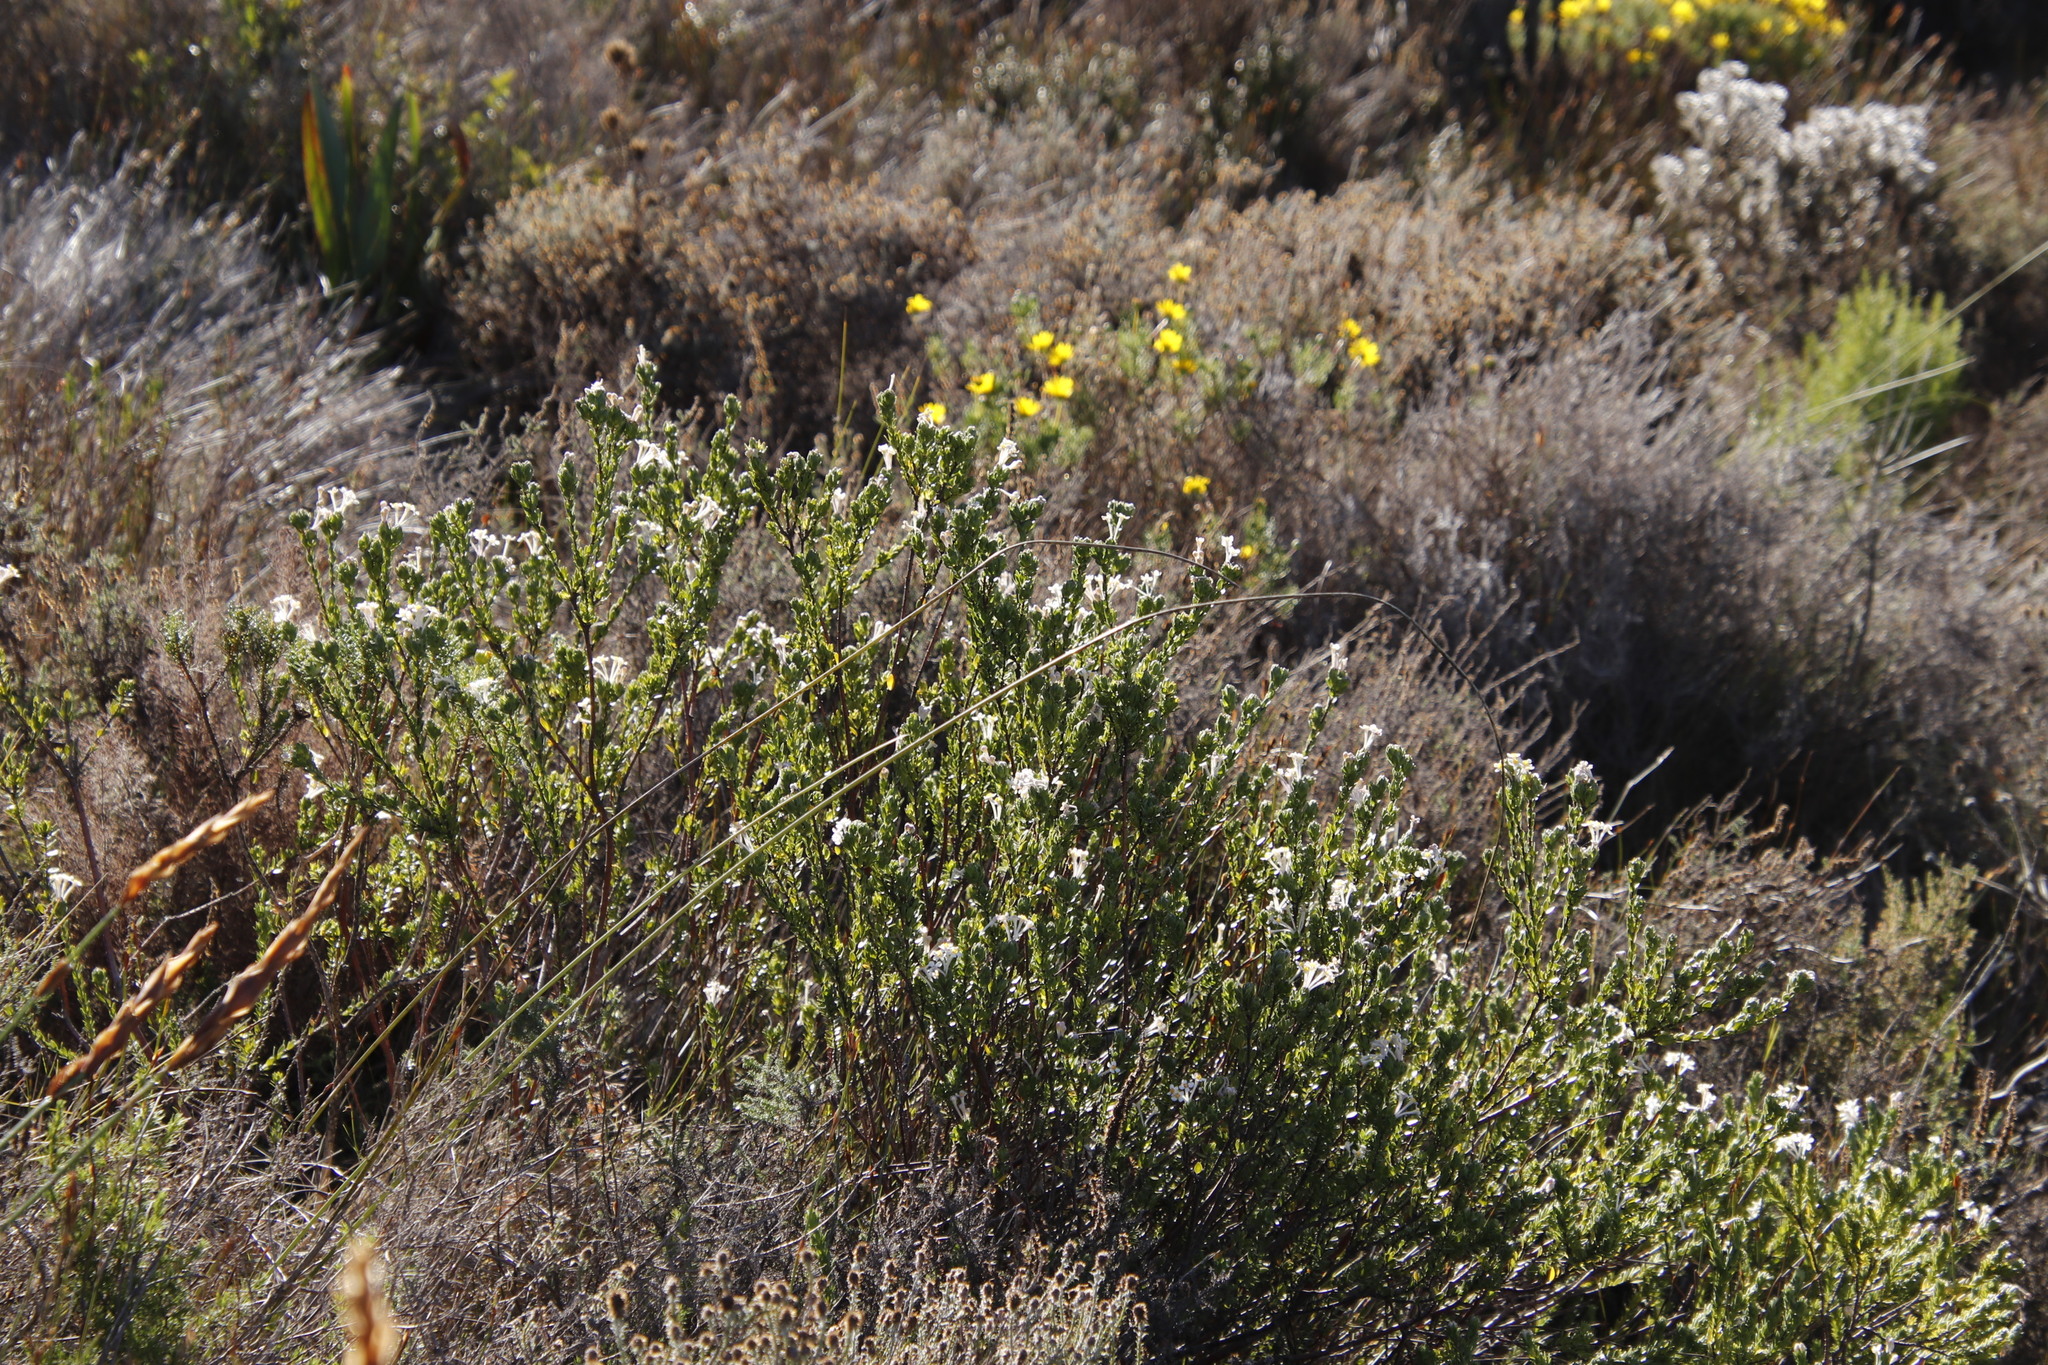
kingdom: Plantae
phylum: Tracheophyta
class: Magnoliopsida
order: Malvales
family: Thymelaeaceae
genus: Gnidia
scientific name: Gnidia tomentosa
